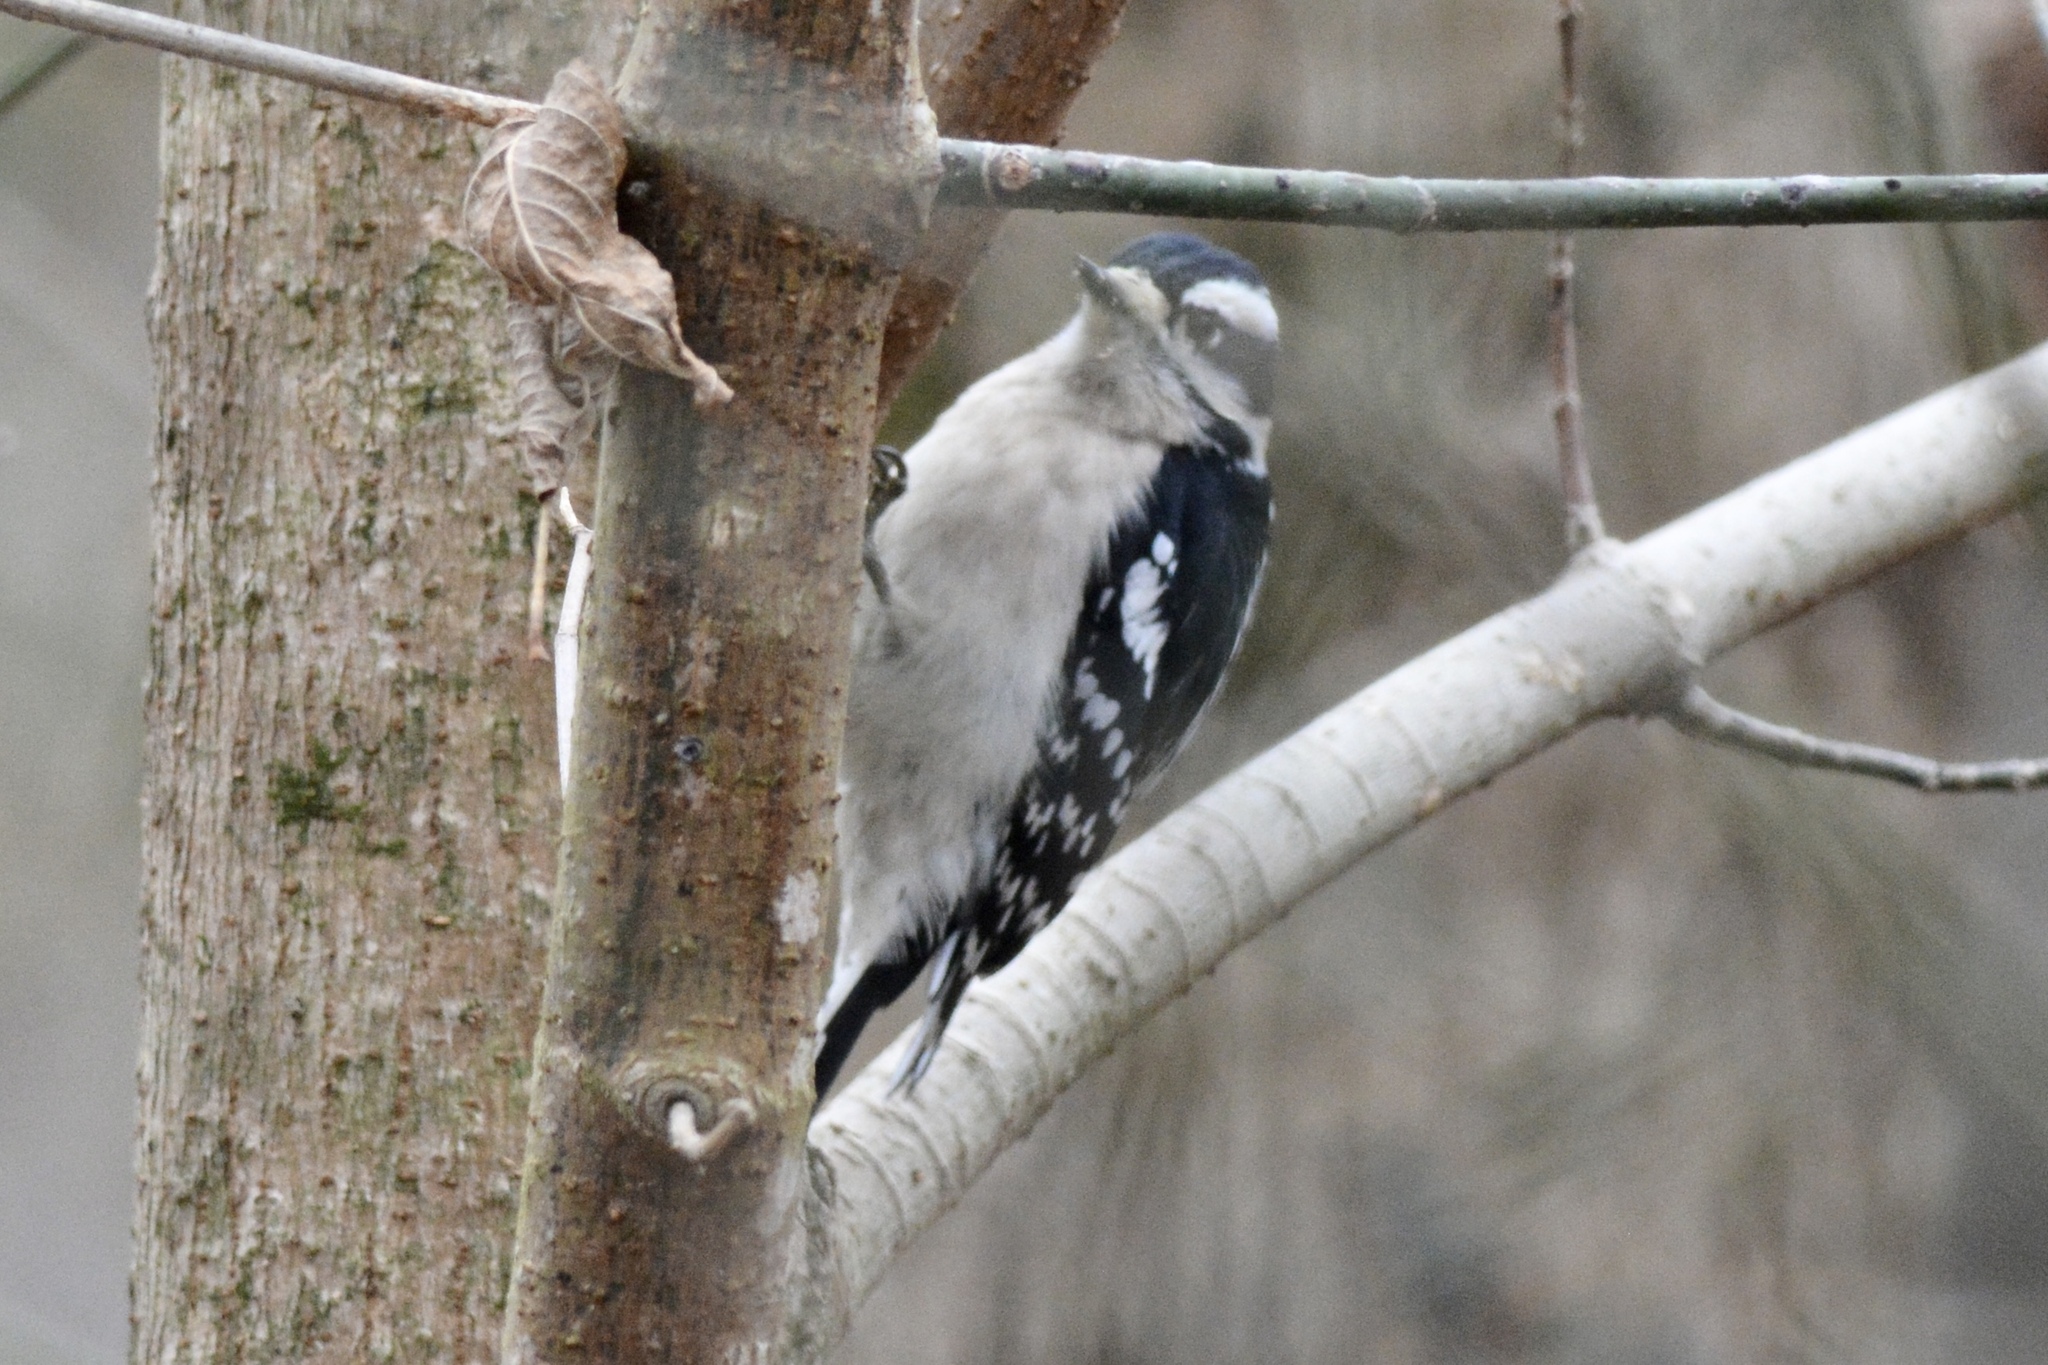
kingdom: Animalia
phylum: Chordata
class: Aves
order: Piciformes
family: Picidae
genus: Dryobates
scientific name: Dryobates pubescens
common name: Downy woodpecker
